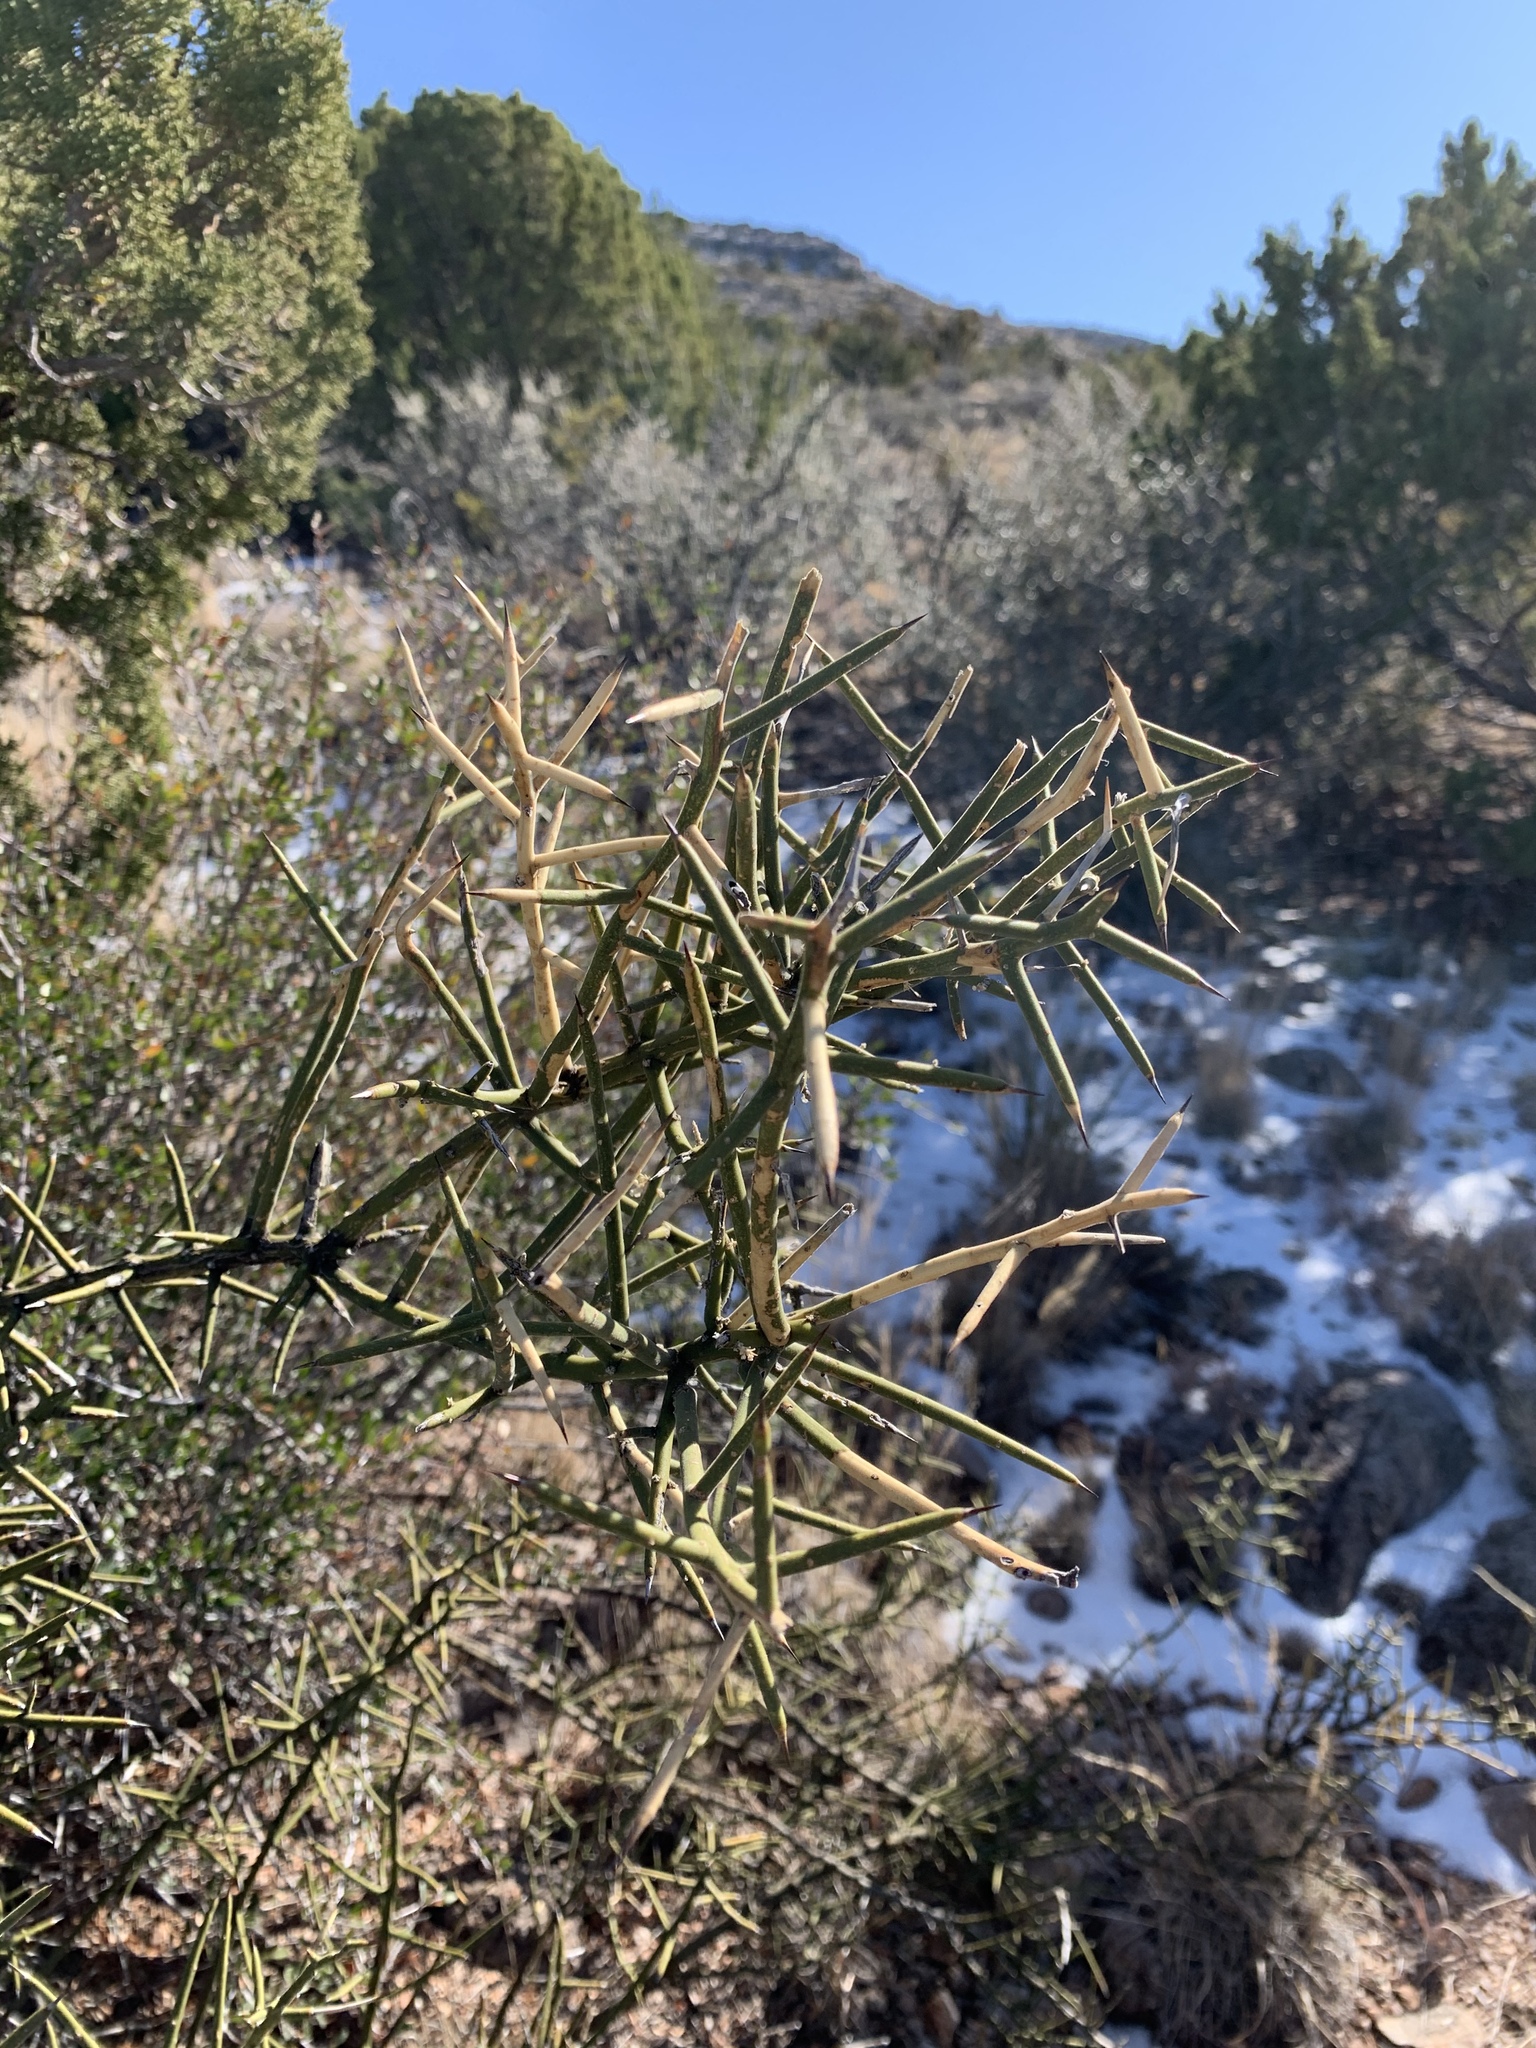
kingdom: Plantae
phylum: Tracheophyta
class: Magnoliopsida
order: Brassicales
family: Koeberliniaceae
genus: Koeberlinia
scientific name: Koeberlinia spinosa
